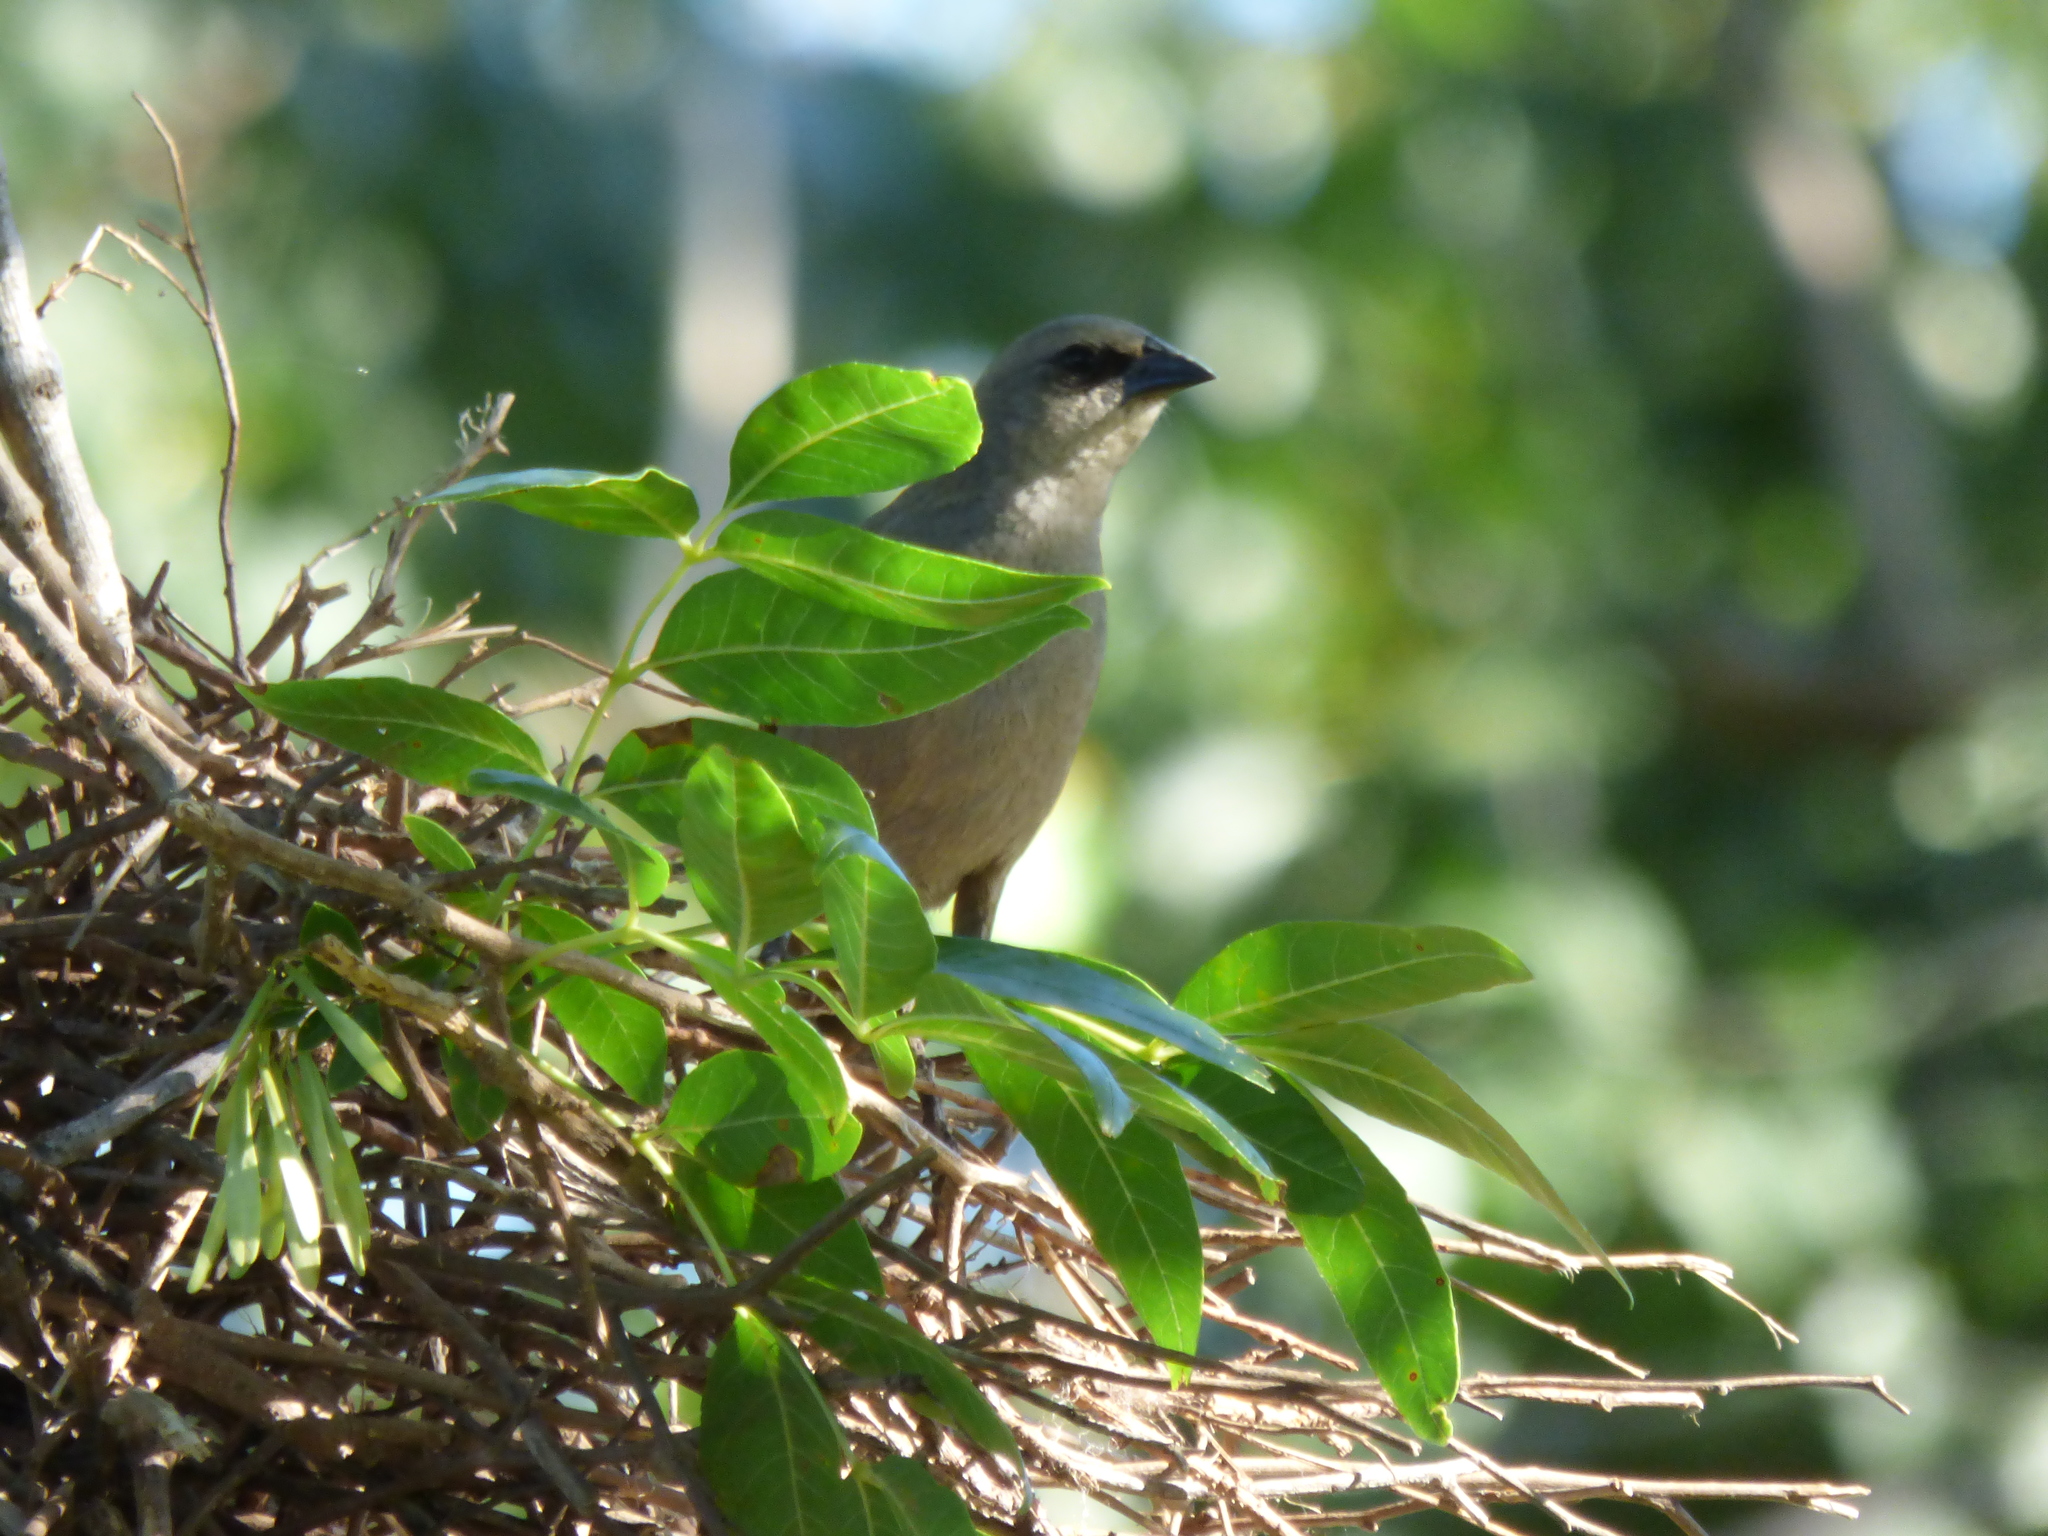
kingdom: Animalia
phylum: Chordata
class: Aves
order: Passeriformes
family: Icteridae
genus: Agelaioides
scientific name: Agelaioides badius
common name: Baywing
